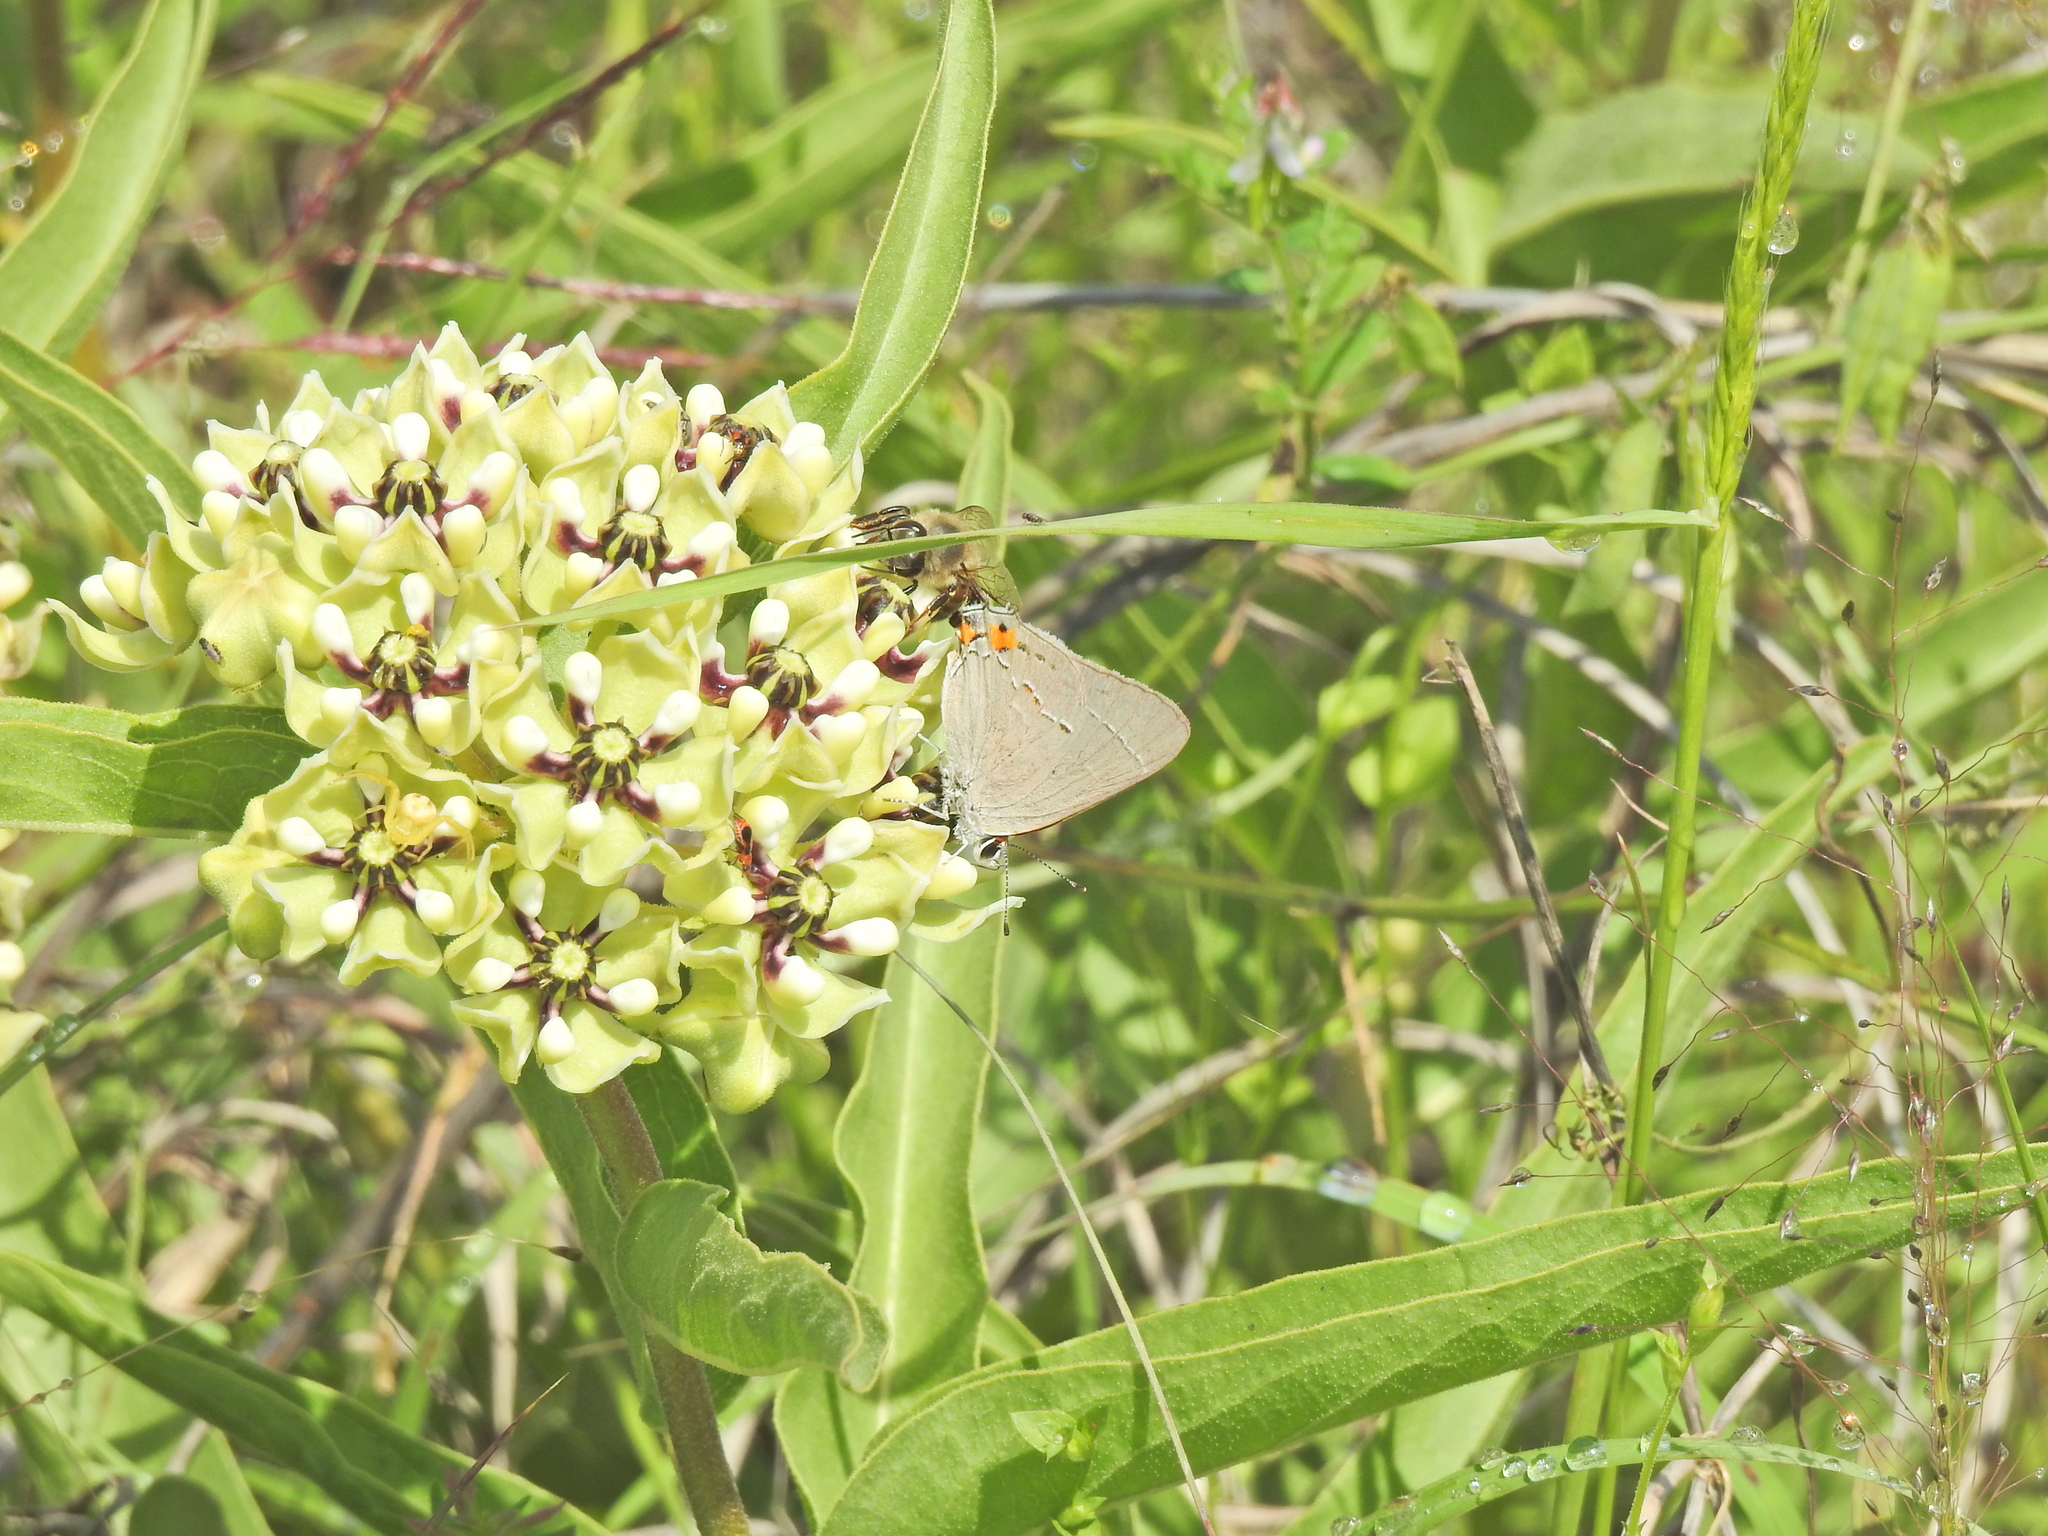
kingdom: Animalia
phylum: Arthropoda
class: Insecta
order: Lepidoptera
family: Lycaenidae
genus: Strymon
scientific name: Strymon melinus
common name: Gray hairstreak
